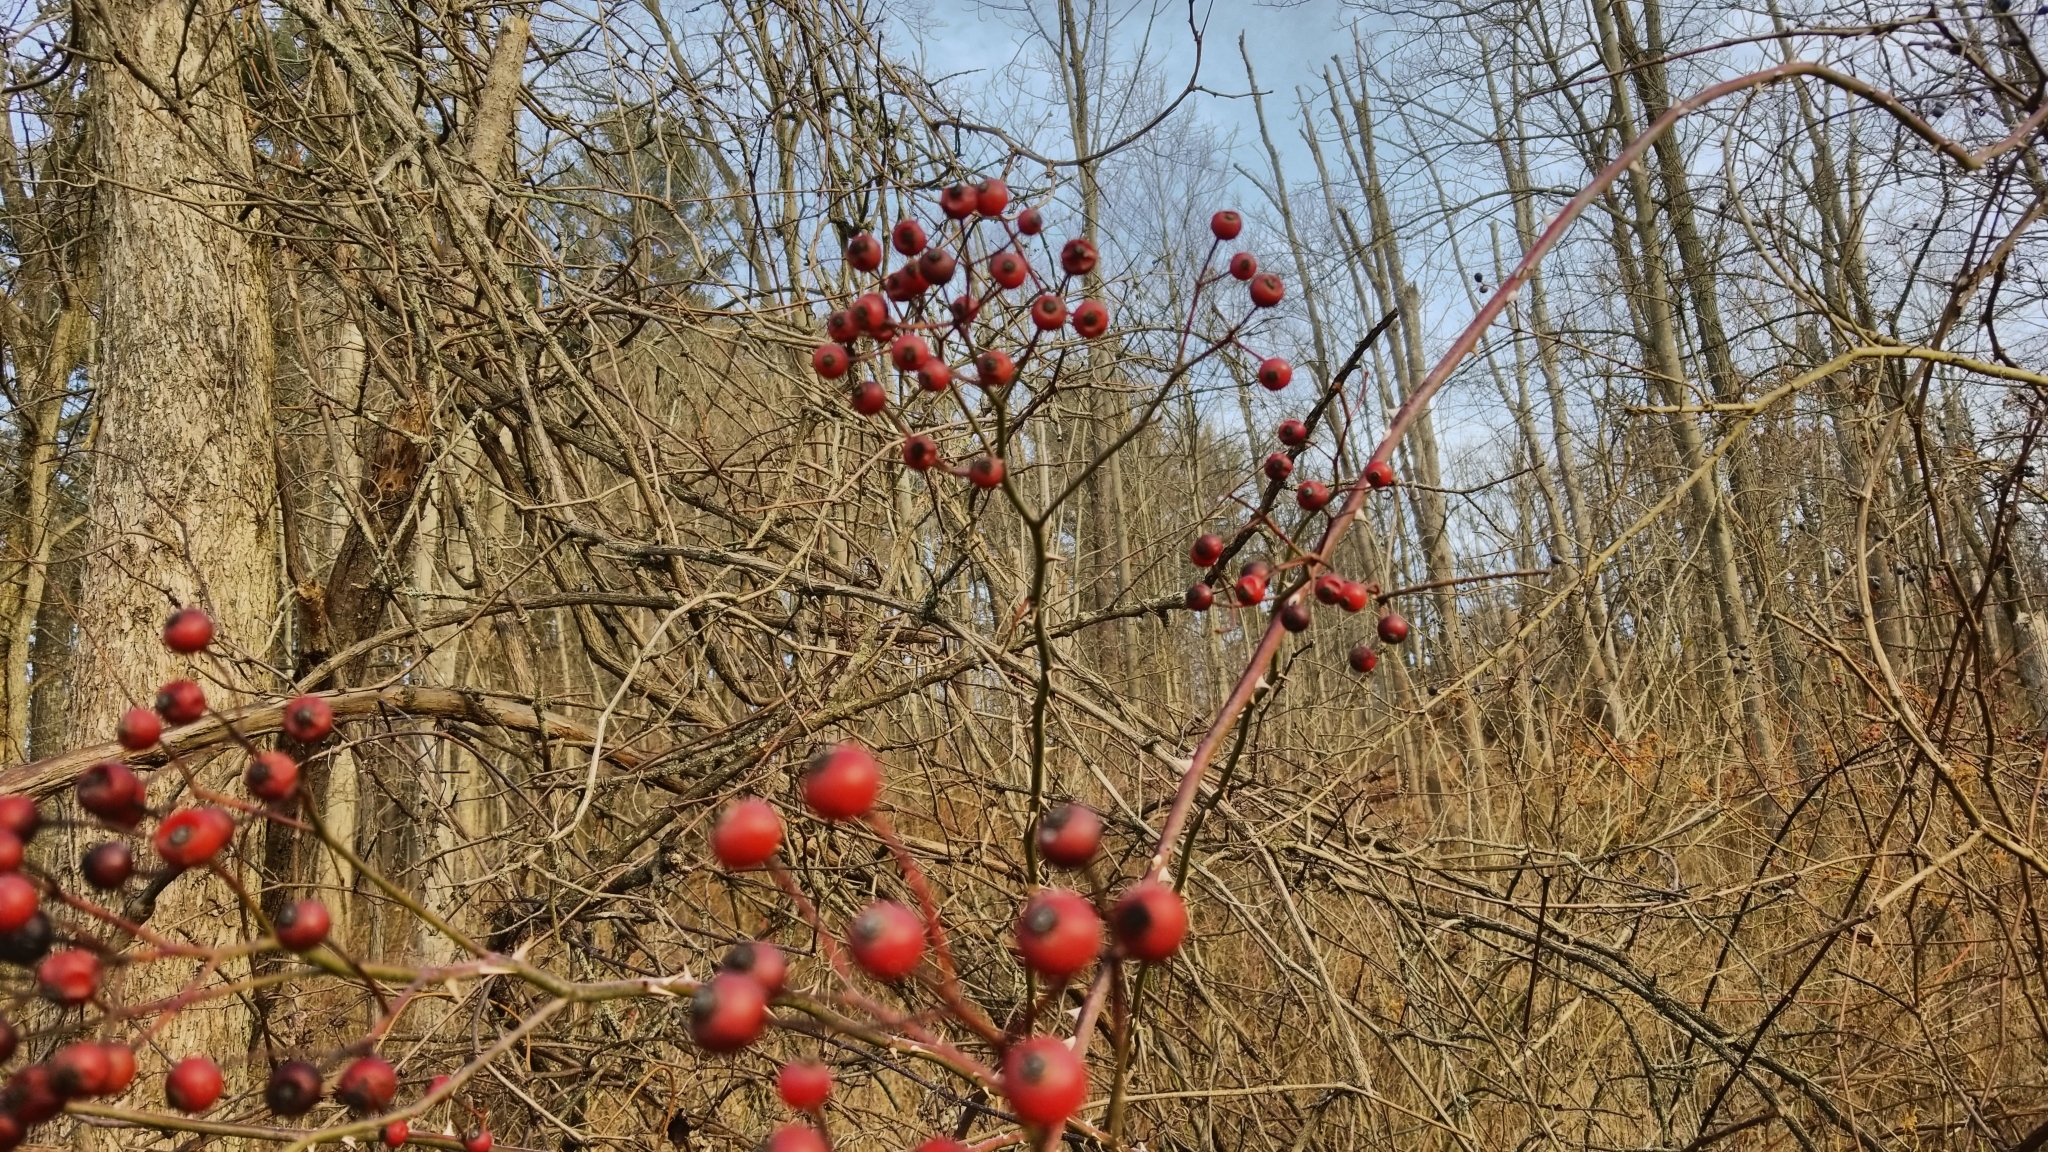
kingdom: Plantae
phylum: Tracheophyta
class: Magnoliopsida
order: Rosales
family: Rosaceae
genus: Rosa
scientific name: Rosa multiflora
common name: Multiflora rose
